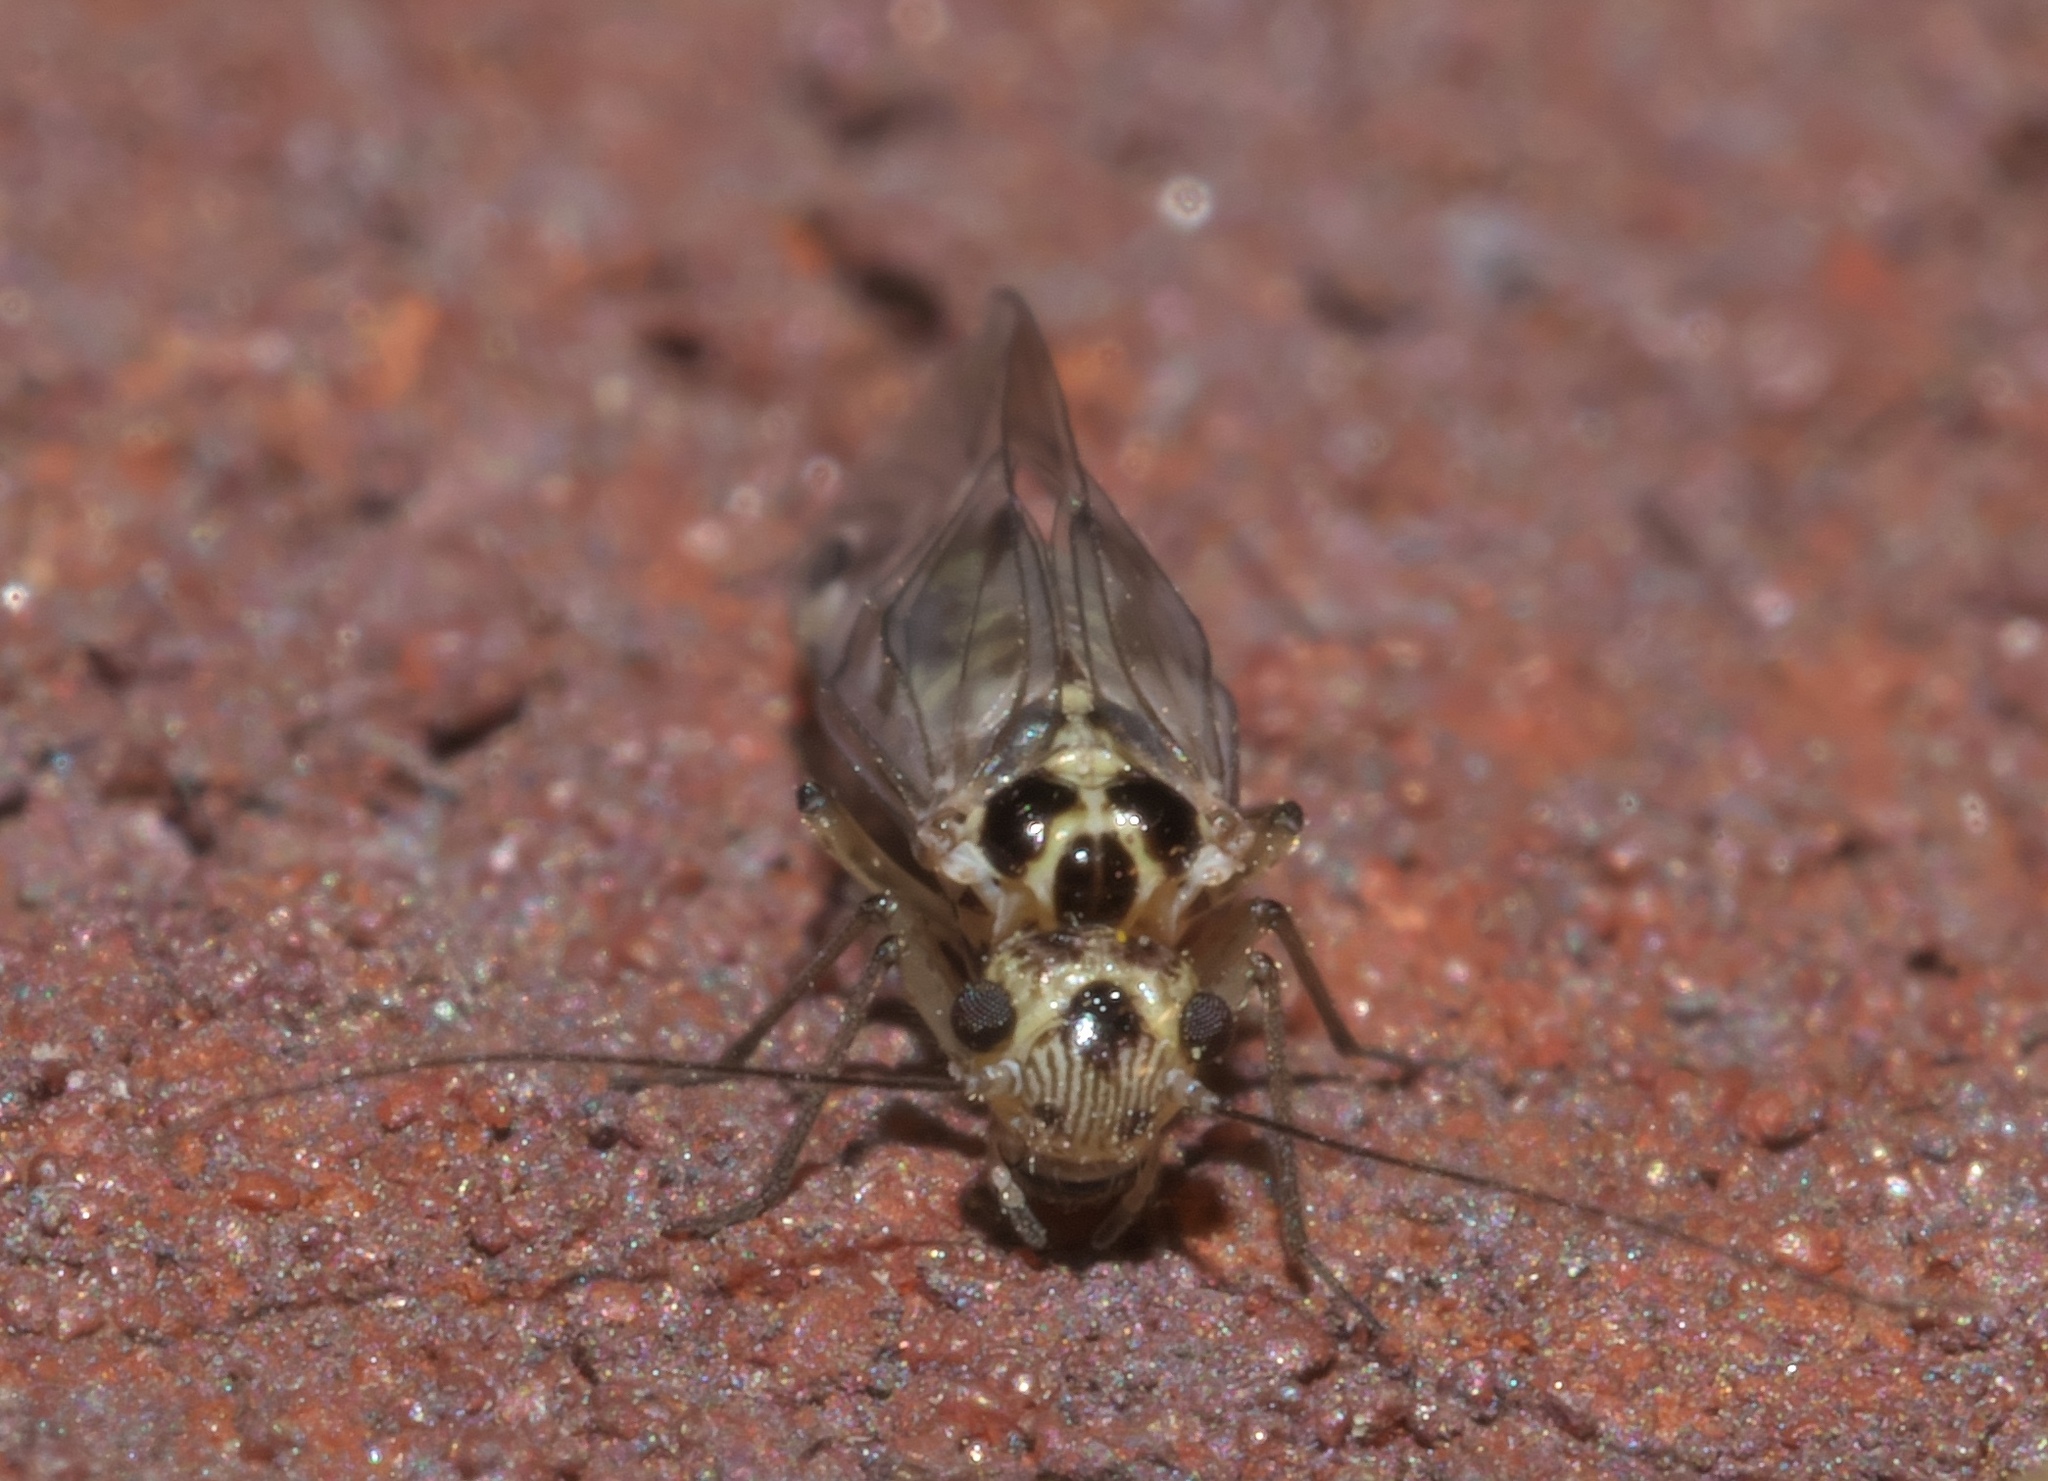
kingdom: Animalia
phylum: Arthropoda
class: Insecta
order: Psocodea
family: Psocidae
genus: Blaste
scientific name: Blaste quieta
